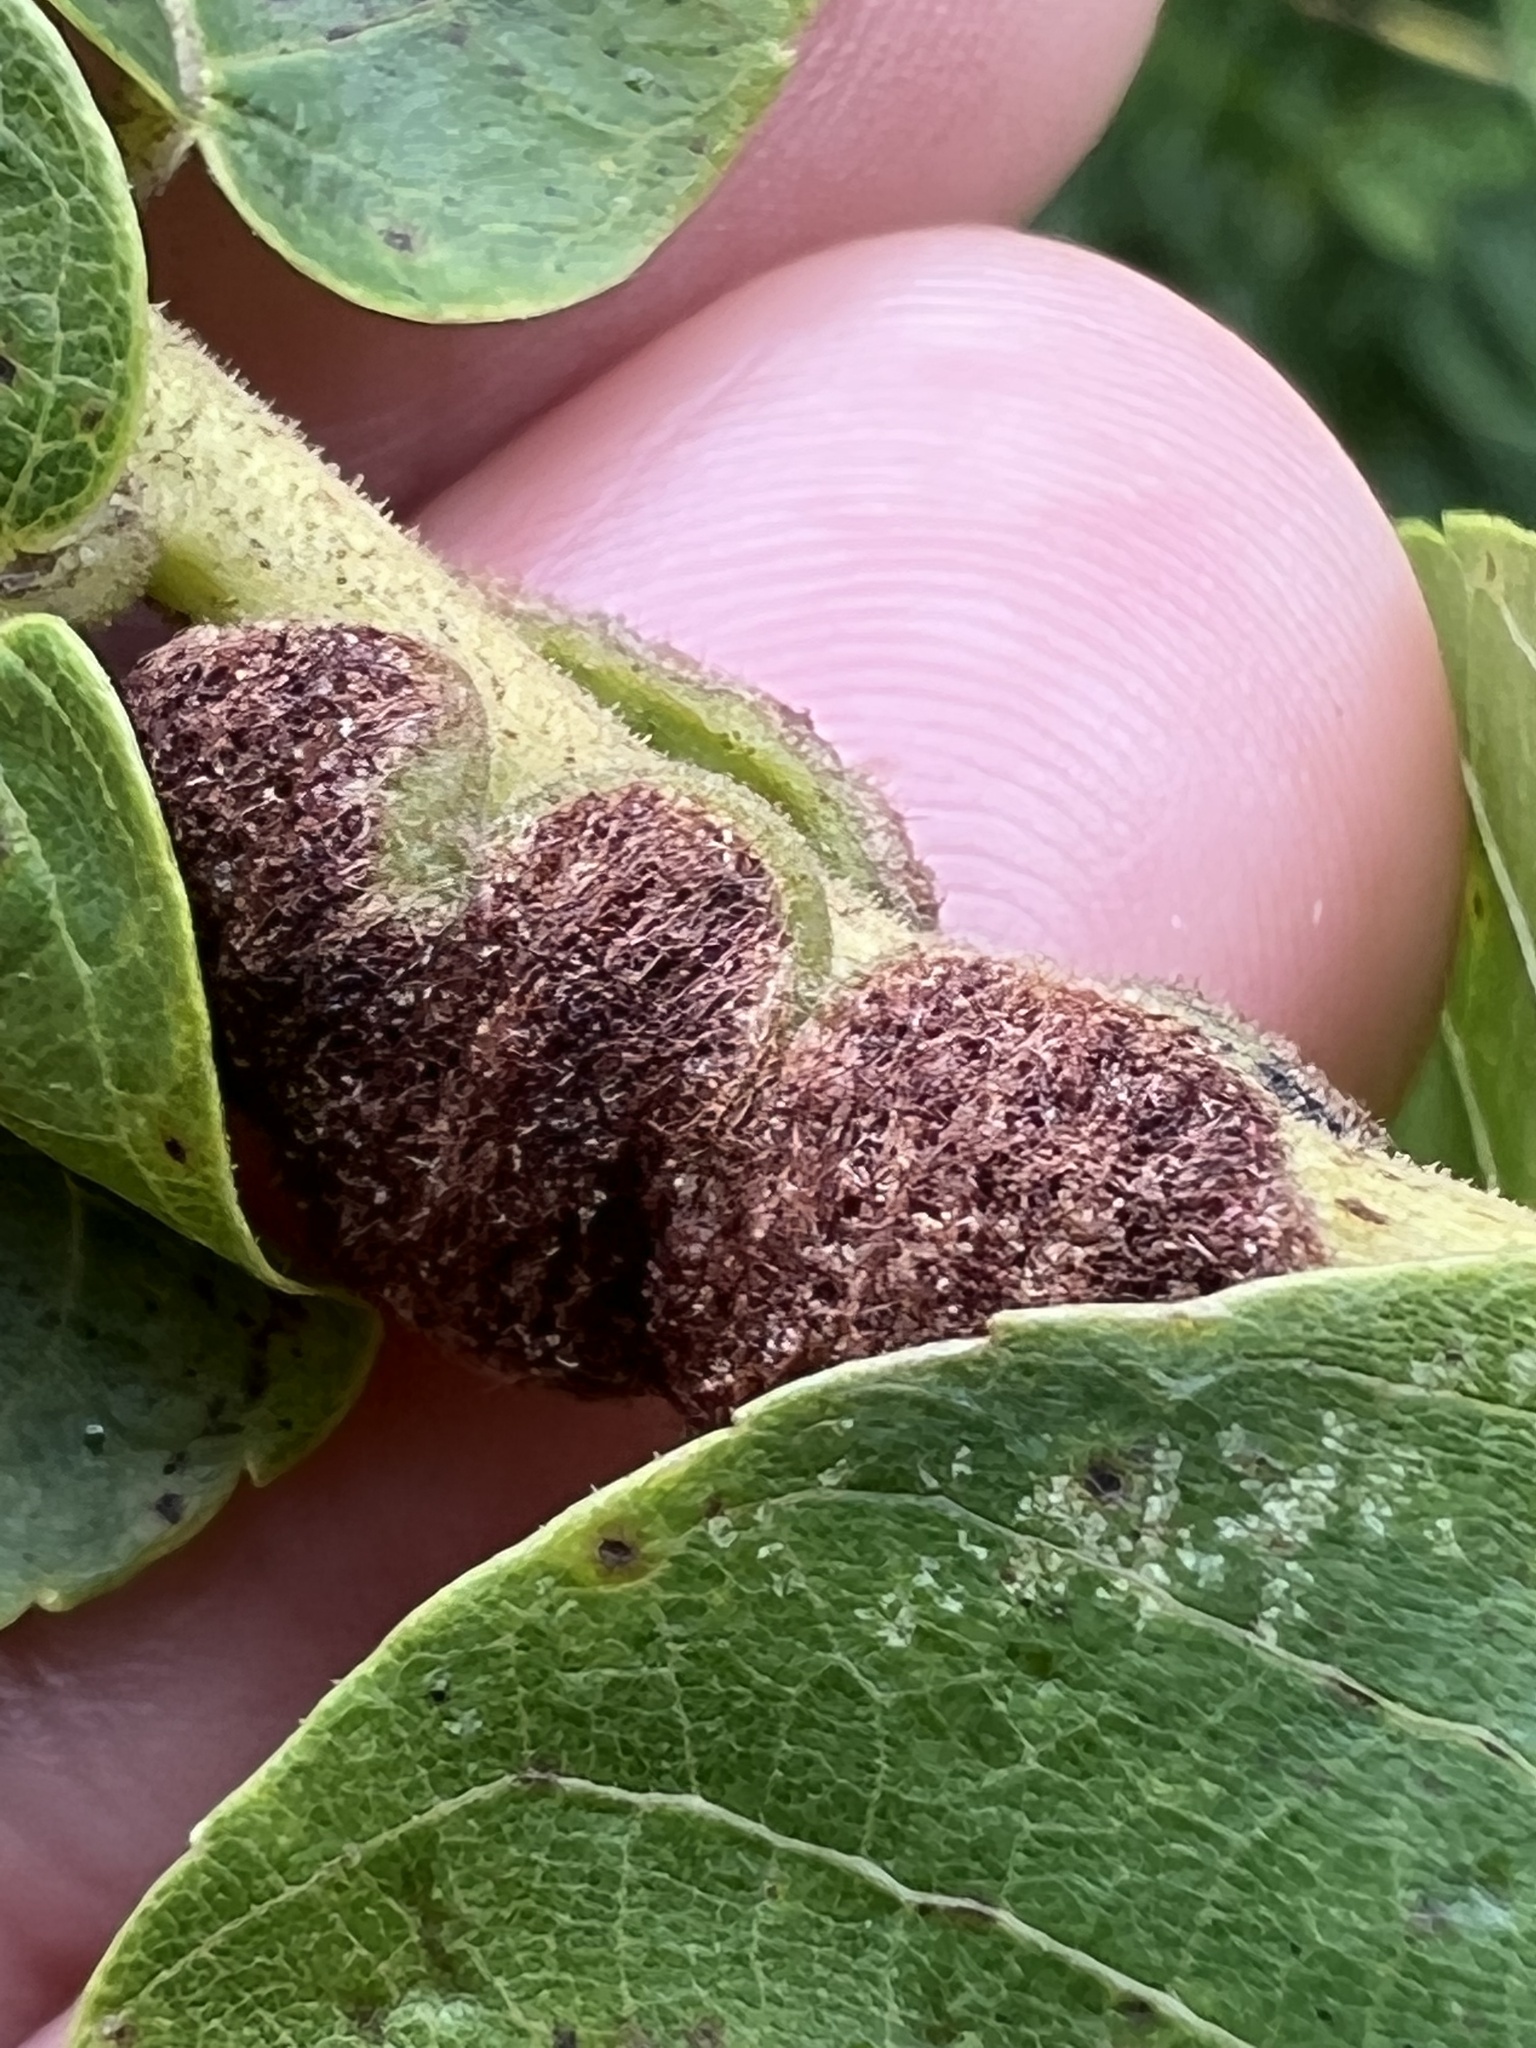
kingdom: Animalia
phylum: Arthropoda
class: Arachnida
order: Trombidiformes
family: Eriophyidae
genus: Aceria
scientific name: Aceria
